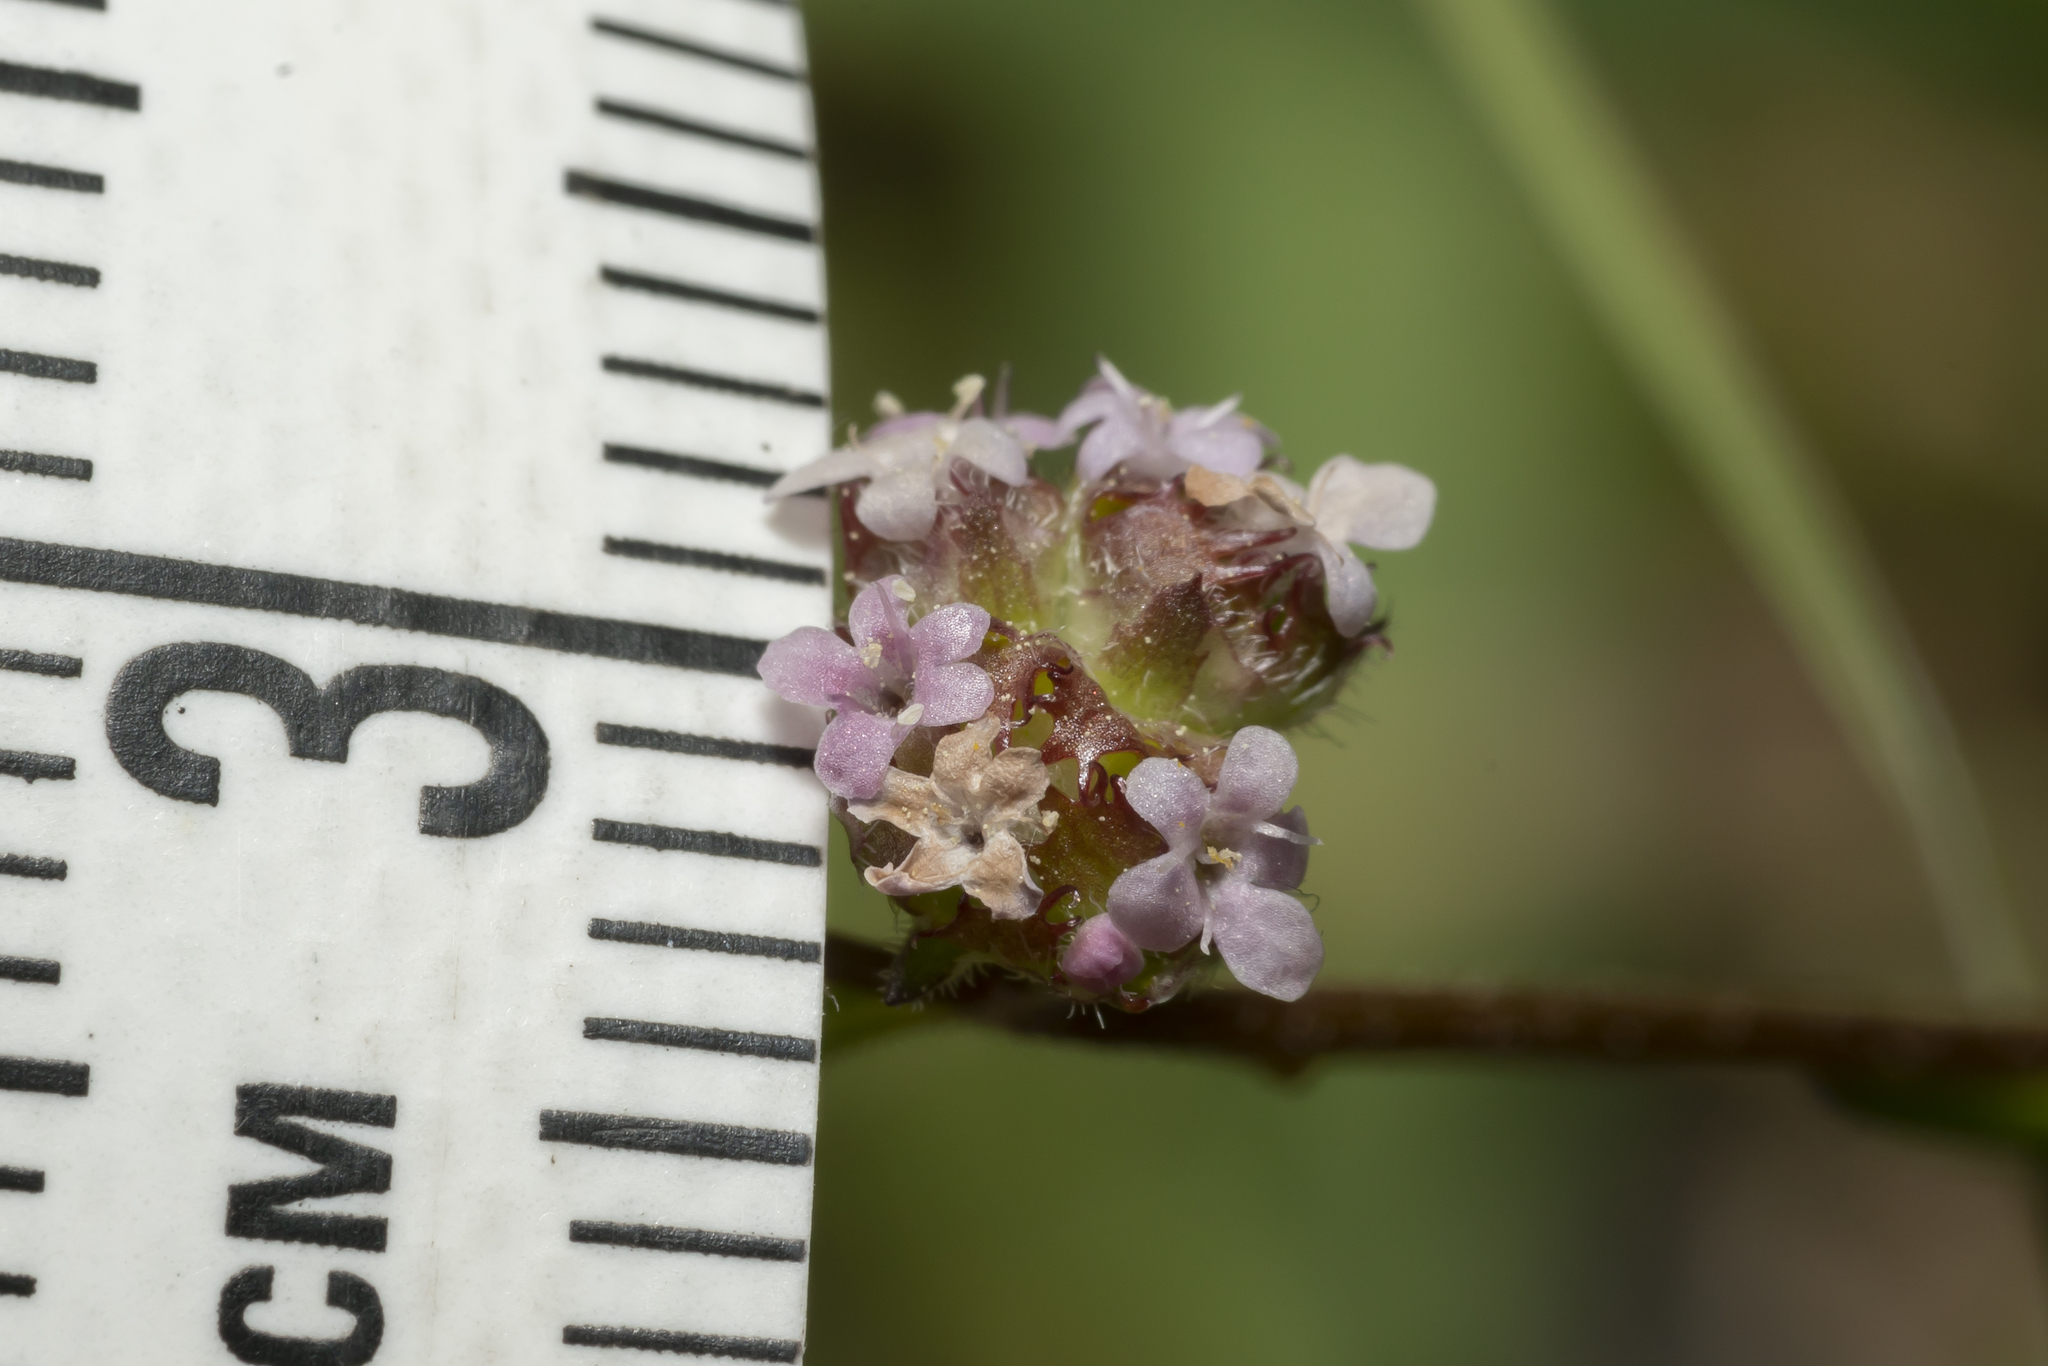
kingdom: Plantae
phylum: Tracheophyta
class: Magnoliopsida
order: Dipsacales
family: Caprifoliaceae
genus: Valerianella
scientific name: Valerianella obtusiloba
